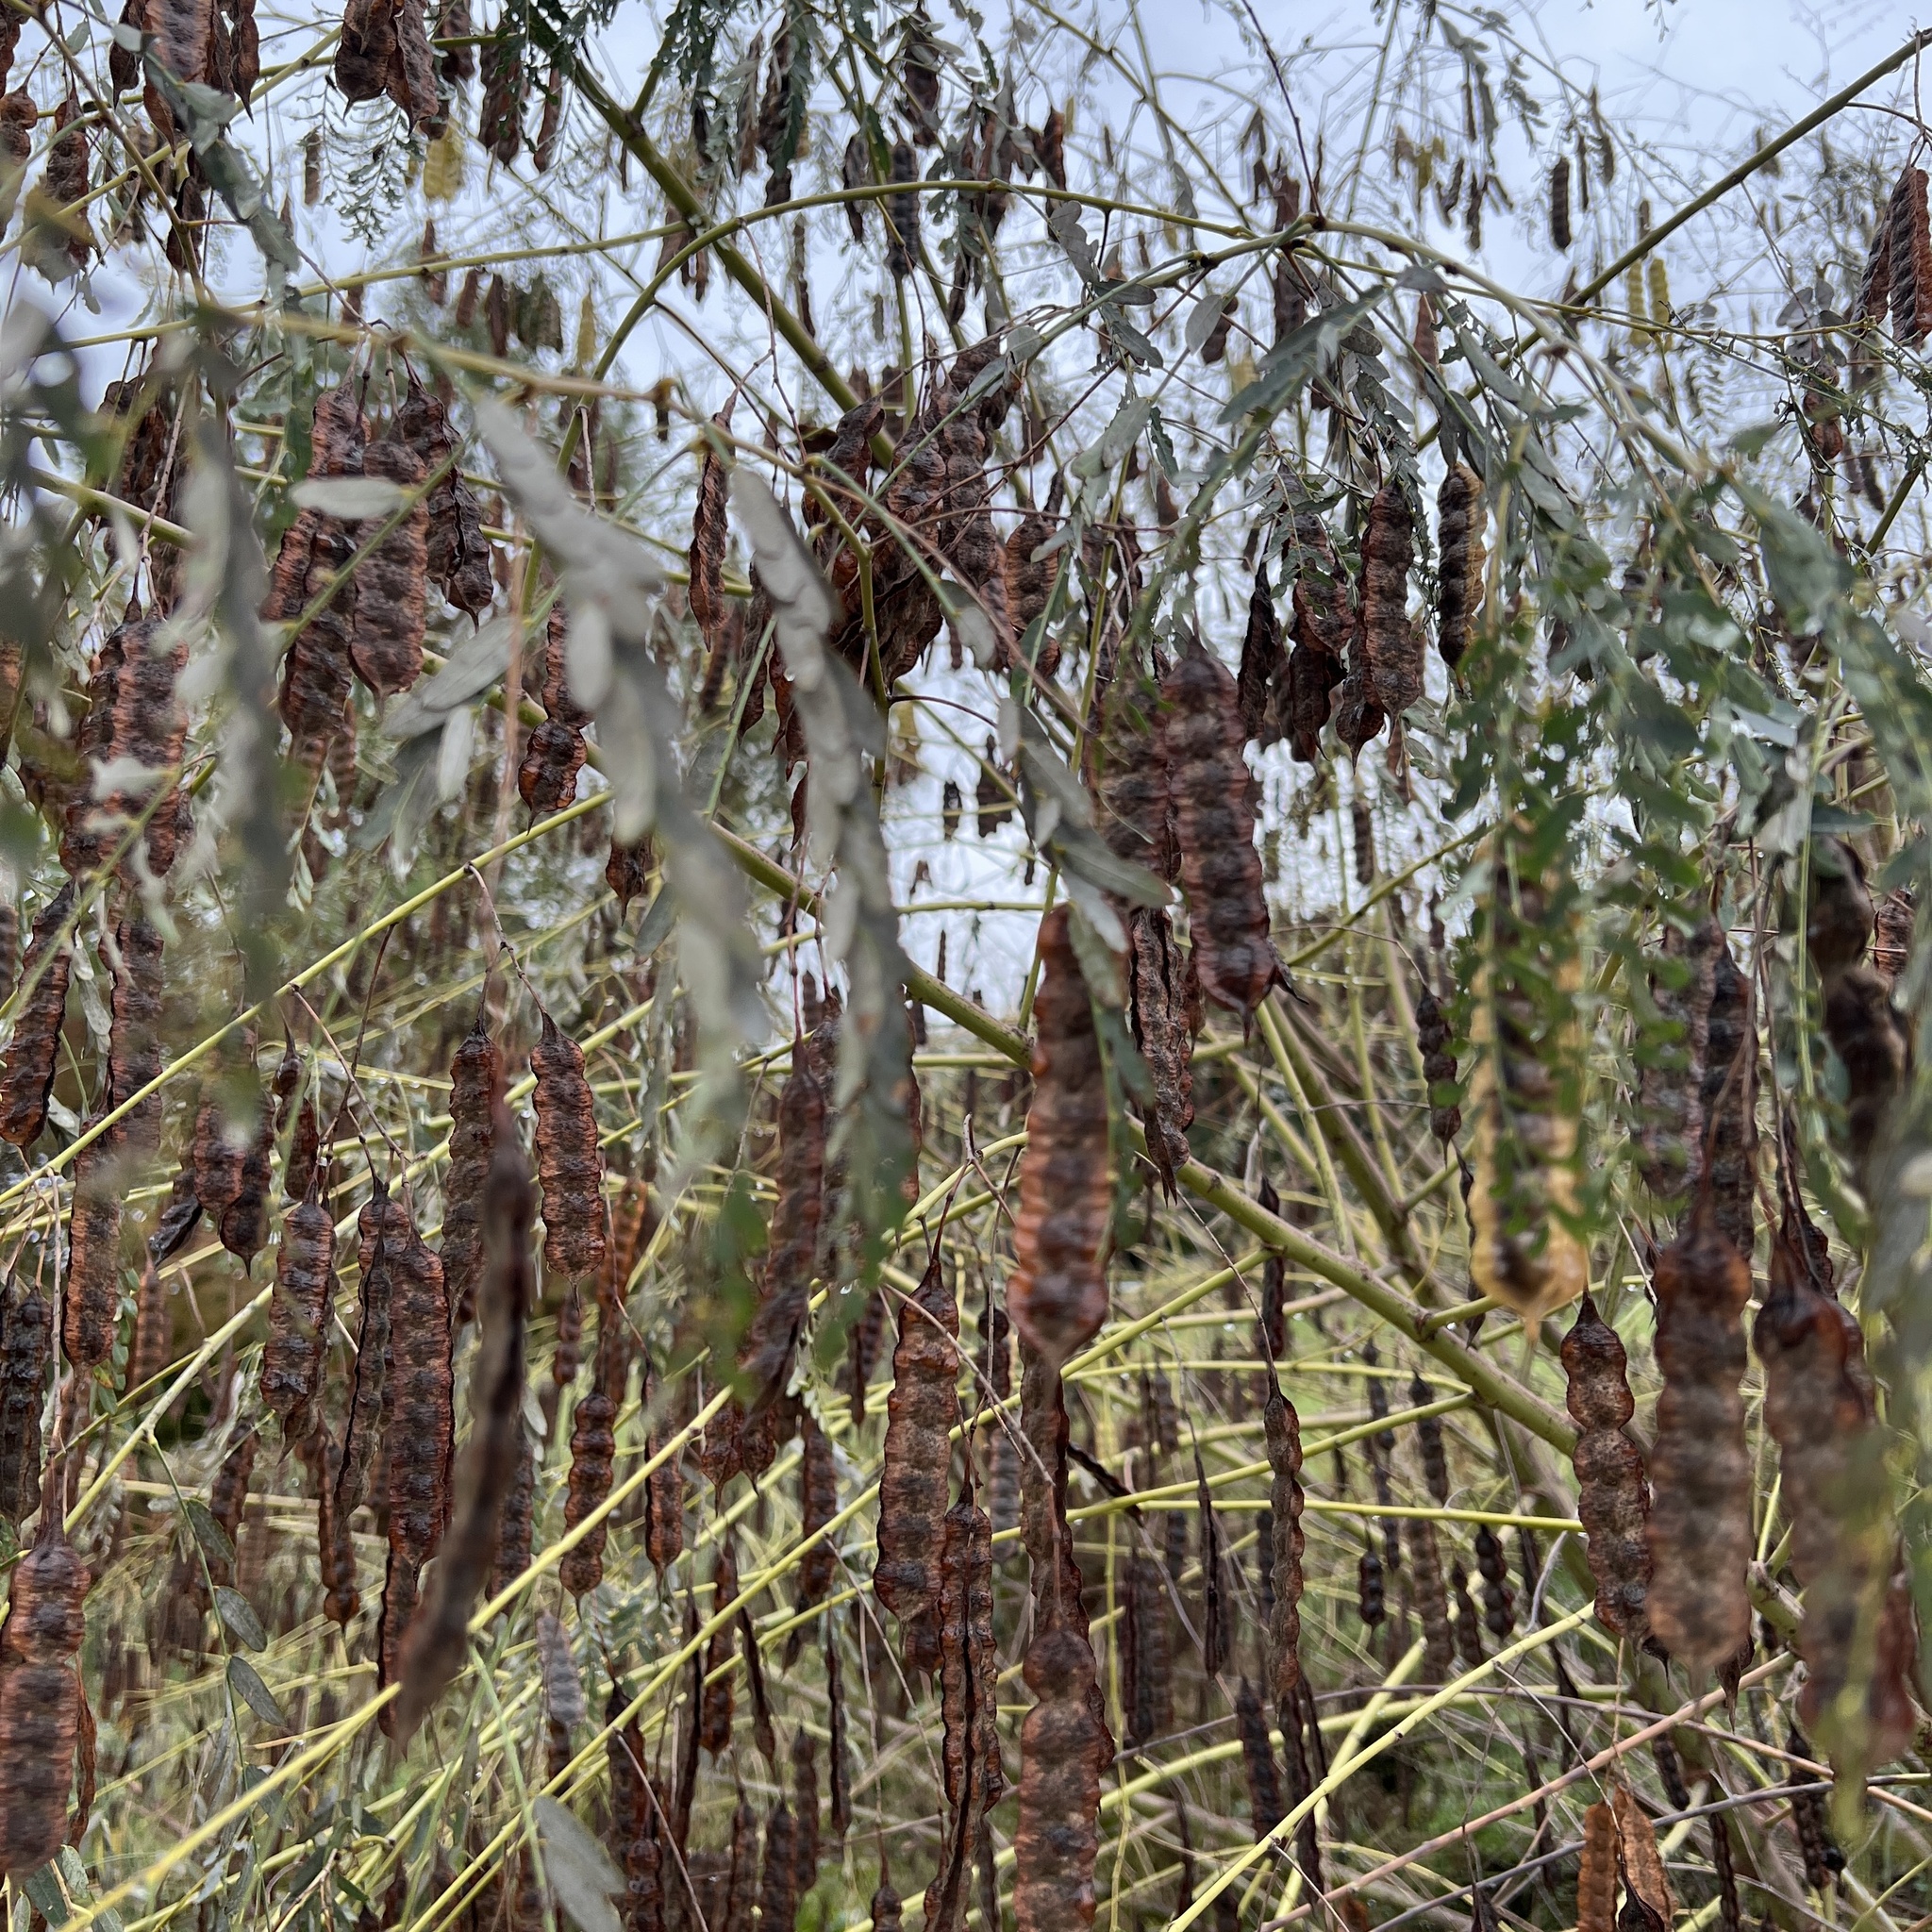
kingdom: Plantae
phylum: Tracheophyta
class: Magnoliopsida
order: Fabales
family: Fabaceae
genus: Sesbania
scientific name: Sesbania drummondii
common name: Poison-bean
